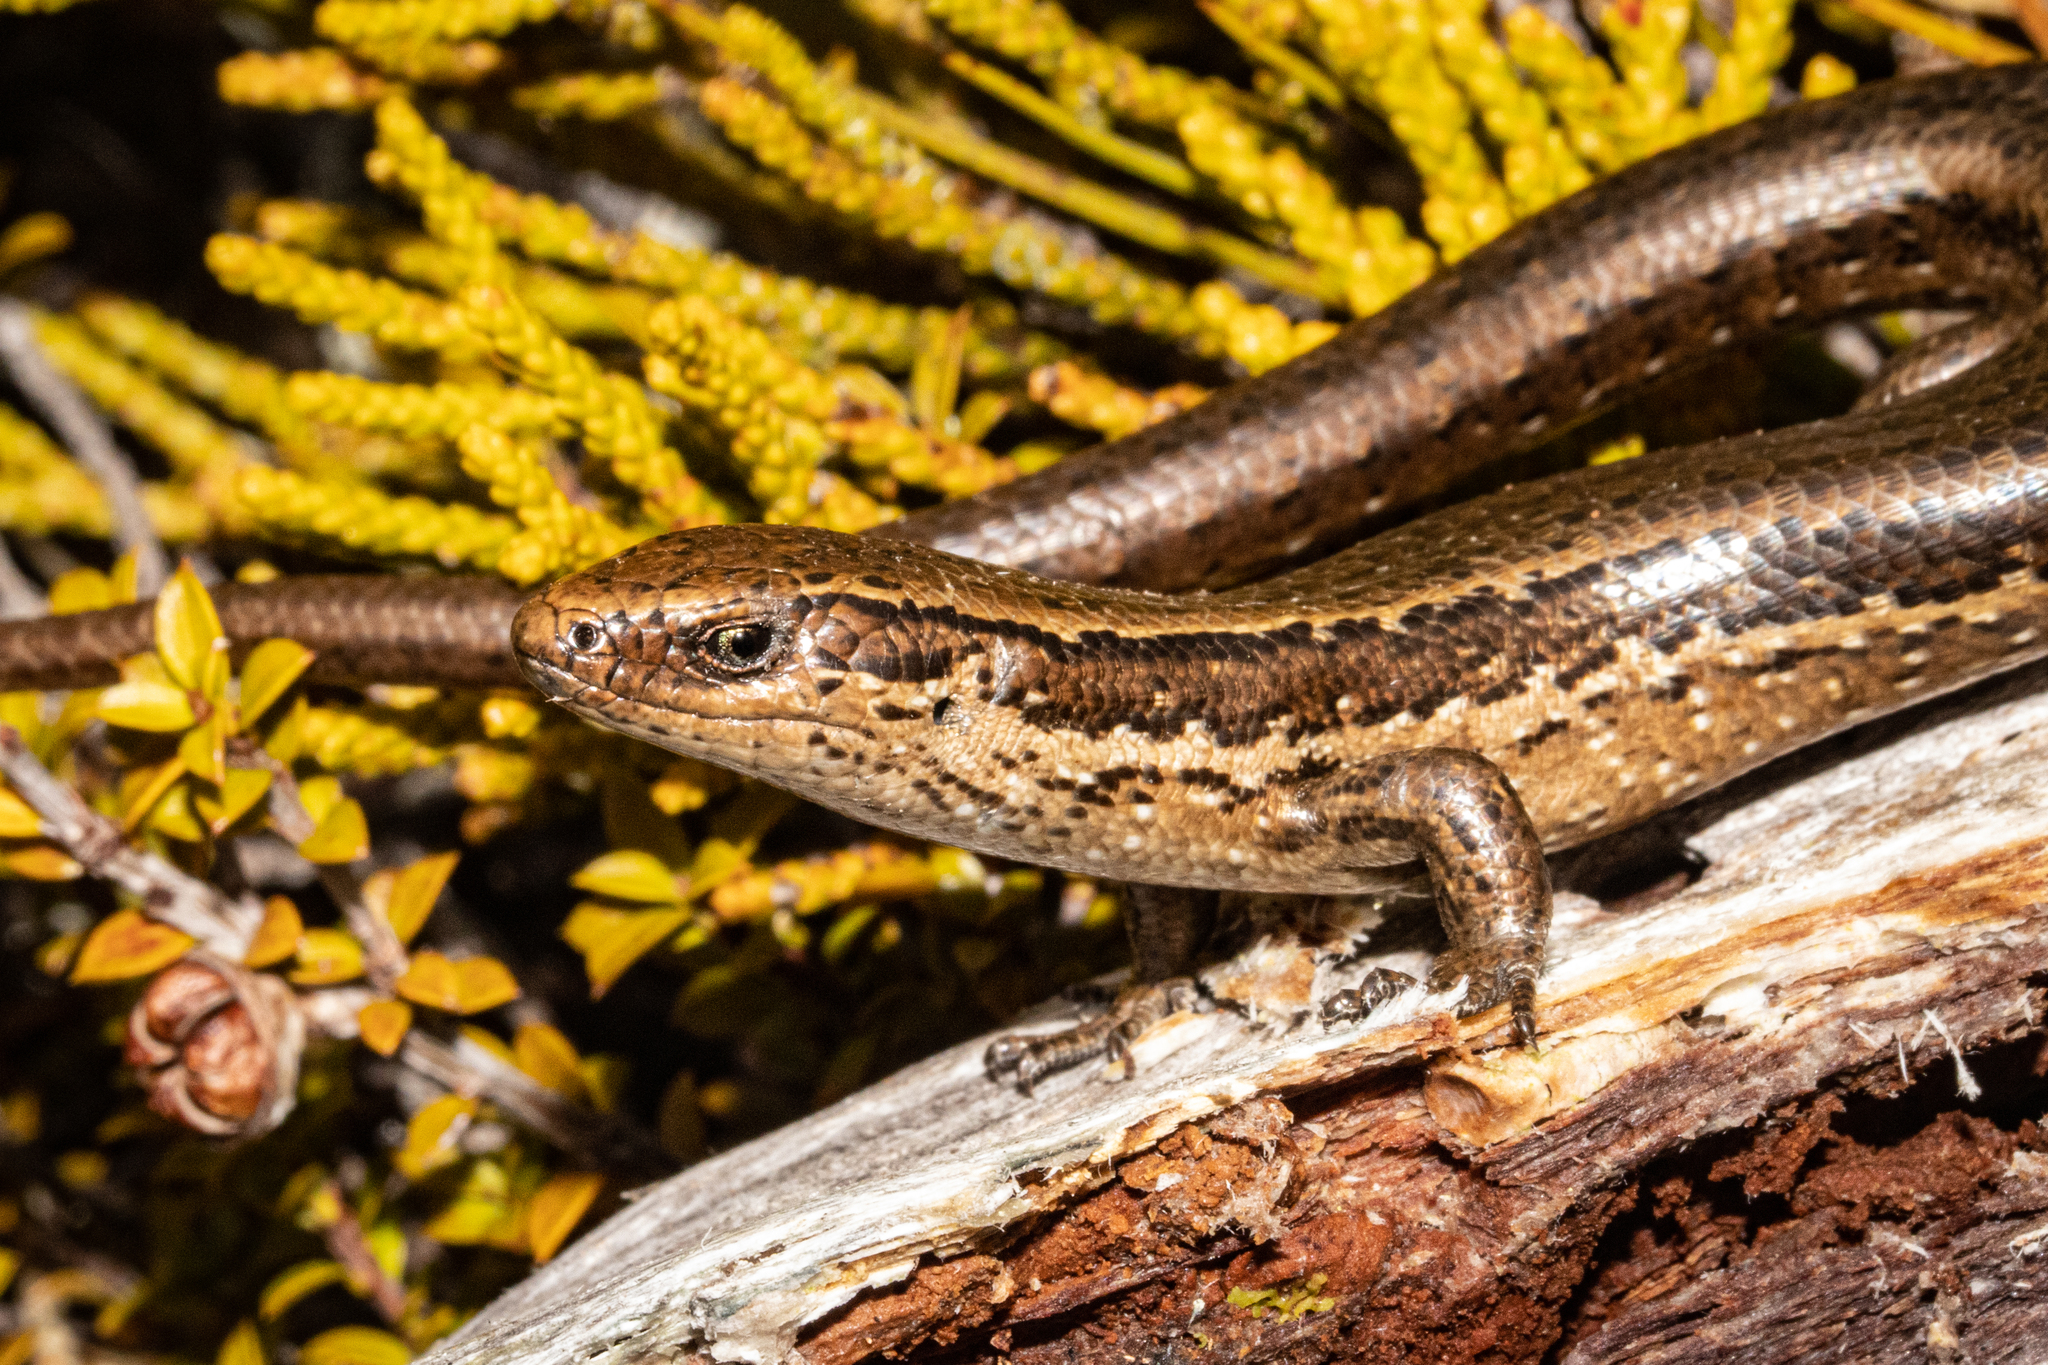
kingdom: Animalia
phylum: Chordata
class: Squamata
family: Scincidae
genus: Oligosoma
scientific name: Oligosoma notosaurus
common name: Southern skink
